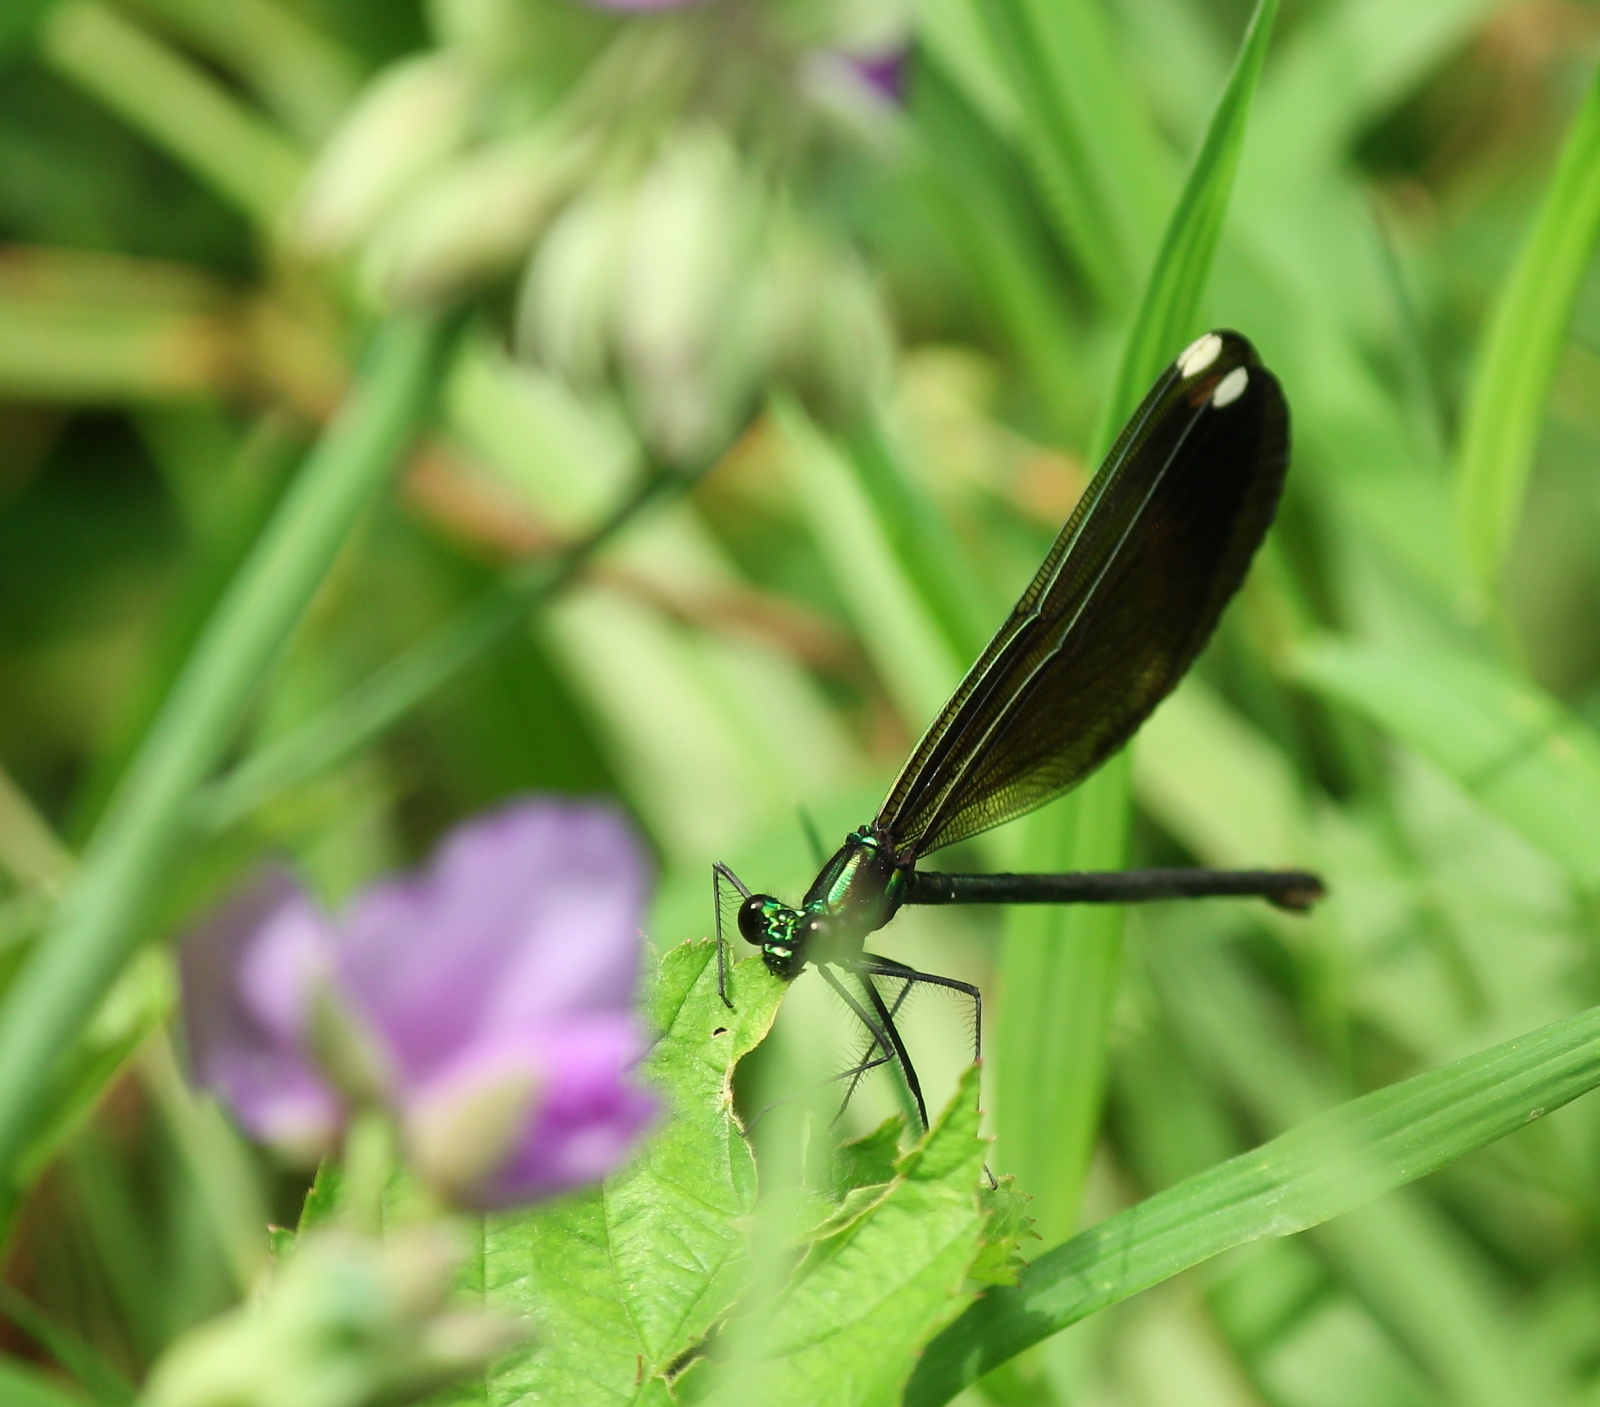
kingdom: Animalia
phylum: Arthropoda
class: Insecta
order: Odonata
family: Calopterygidae
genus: Calopteryx
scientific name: Calopteryx maculata
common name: Ebony jewelwing
